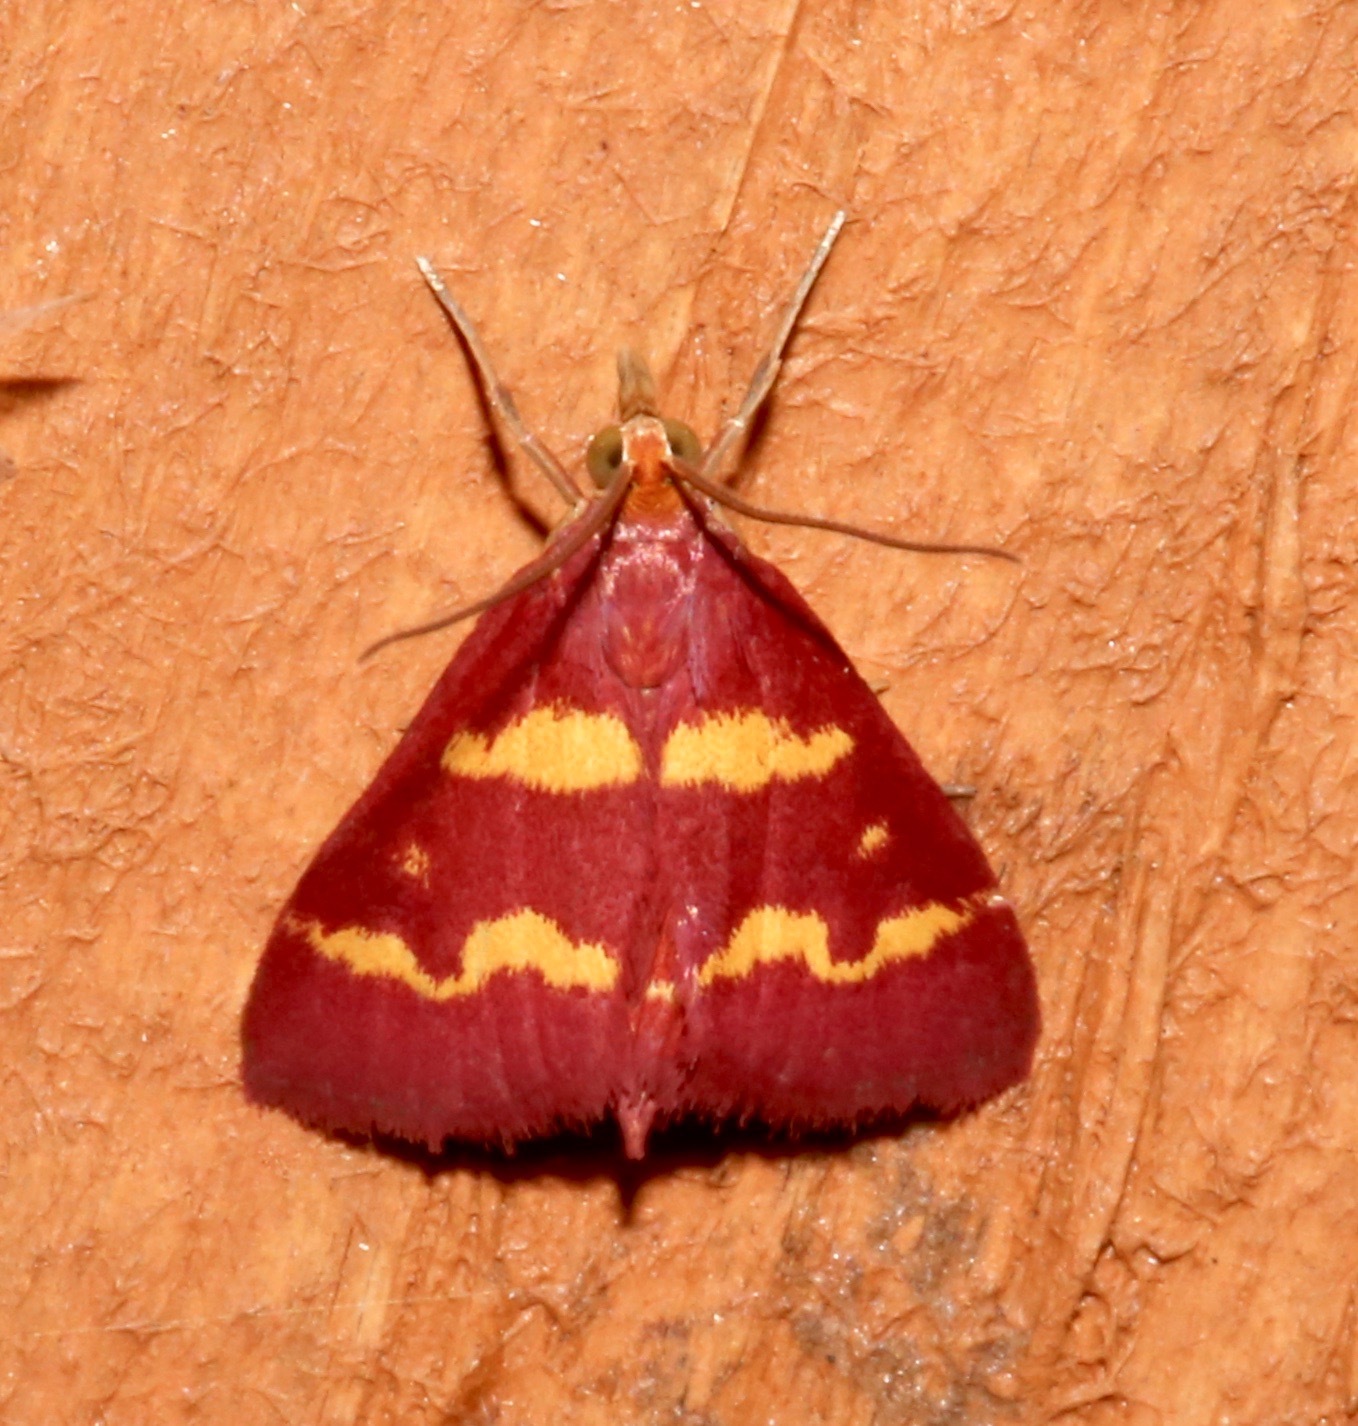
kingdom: Animalia
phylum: Arthropoda
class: Insecta
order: Lepidoptera
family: Crambidae
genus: Pyrausta
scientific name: Pyrausta tyralis
